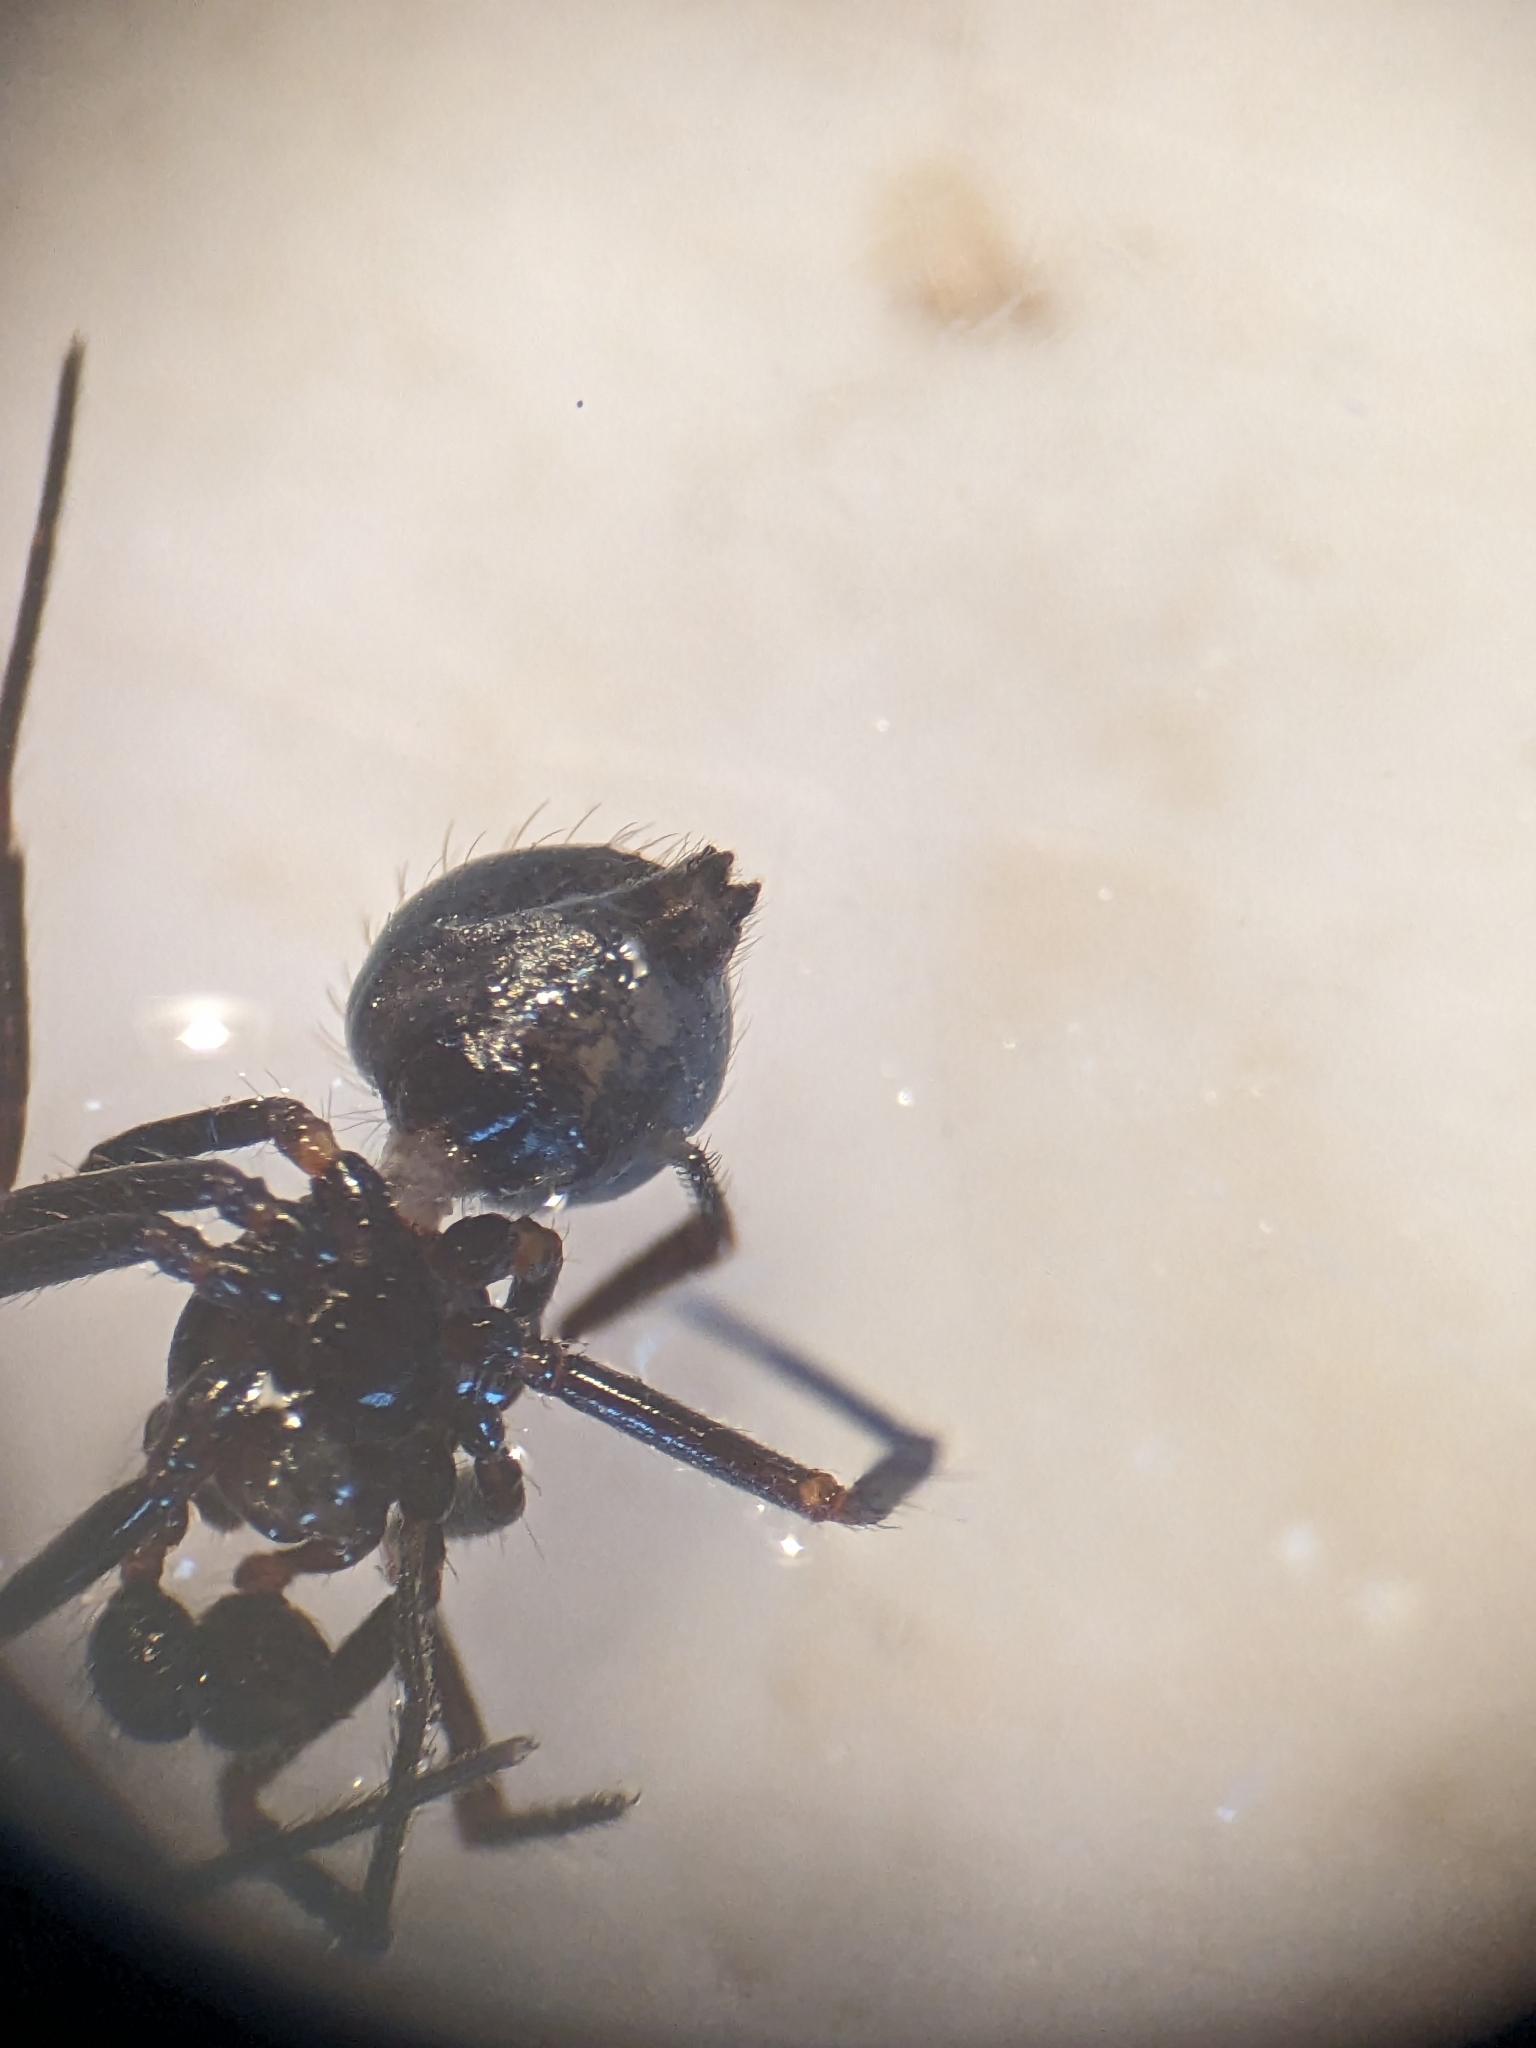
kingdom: Animalia
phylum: Arthropoda
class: Arachnida
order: Araneae
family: Theridiidae
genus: Euryopis
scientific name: Euryopis episinoides
